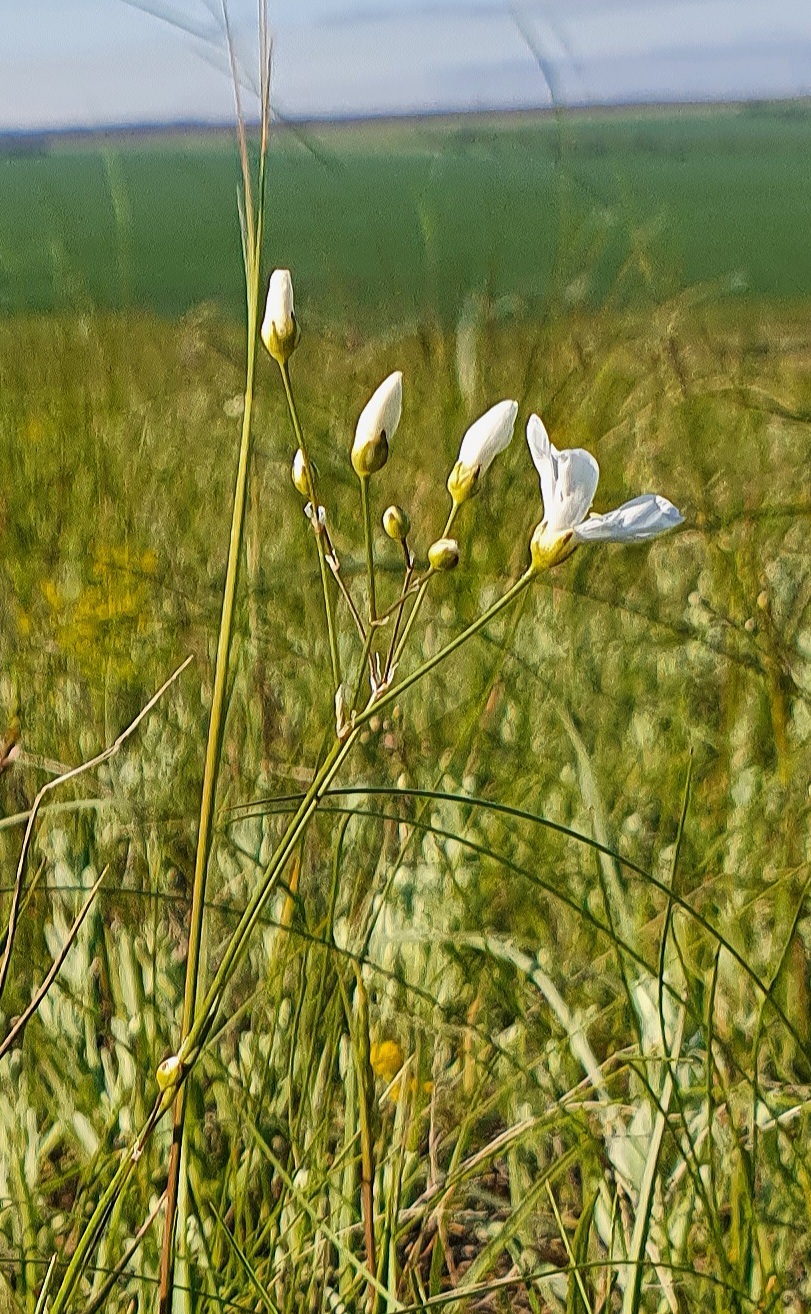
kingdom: Plantae
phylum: Tracheophyta
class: Magnoliopsida
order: Caryophyllales
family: Caryophyllaceae
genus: Eremogone
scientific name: Eremogone saxatilis
